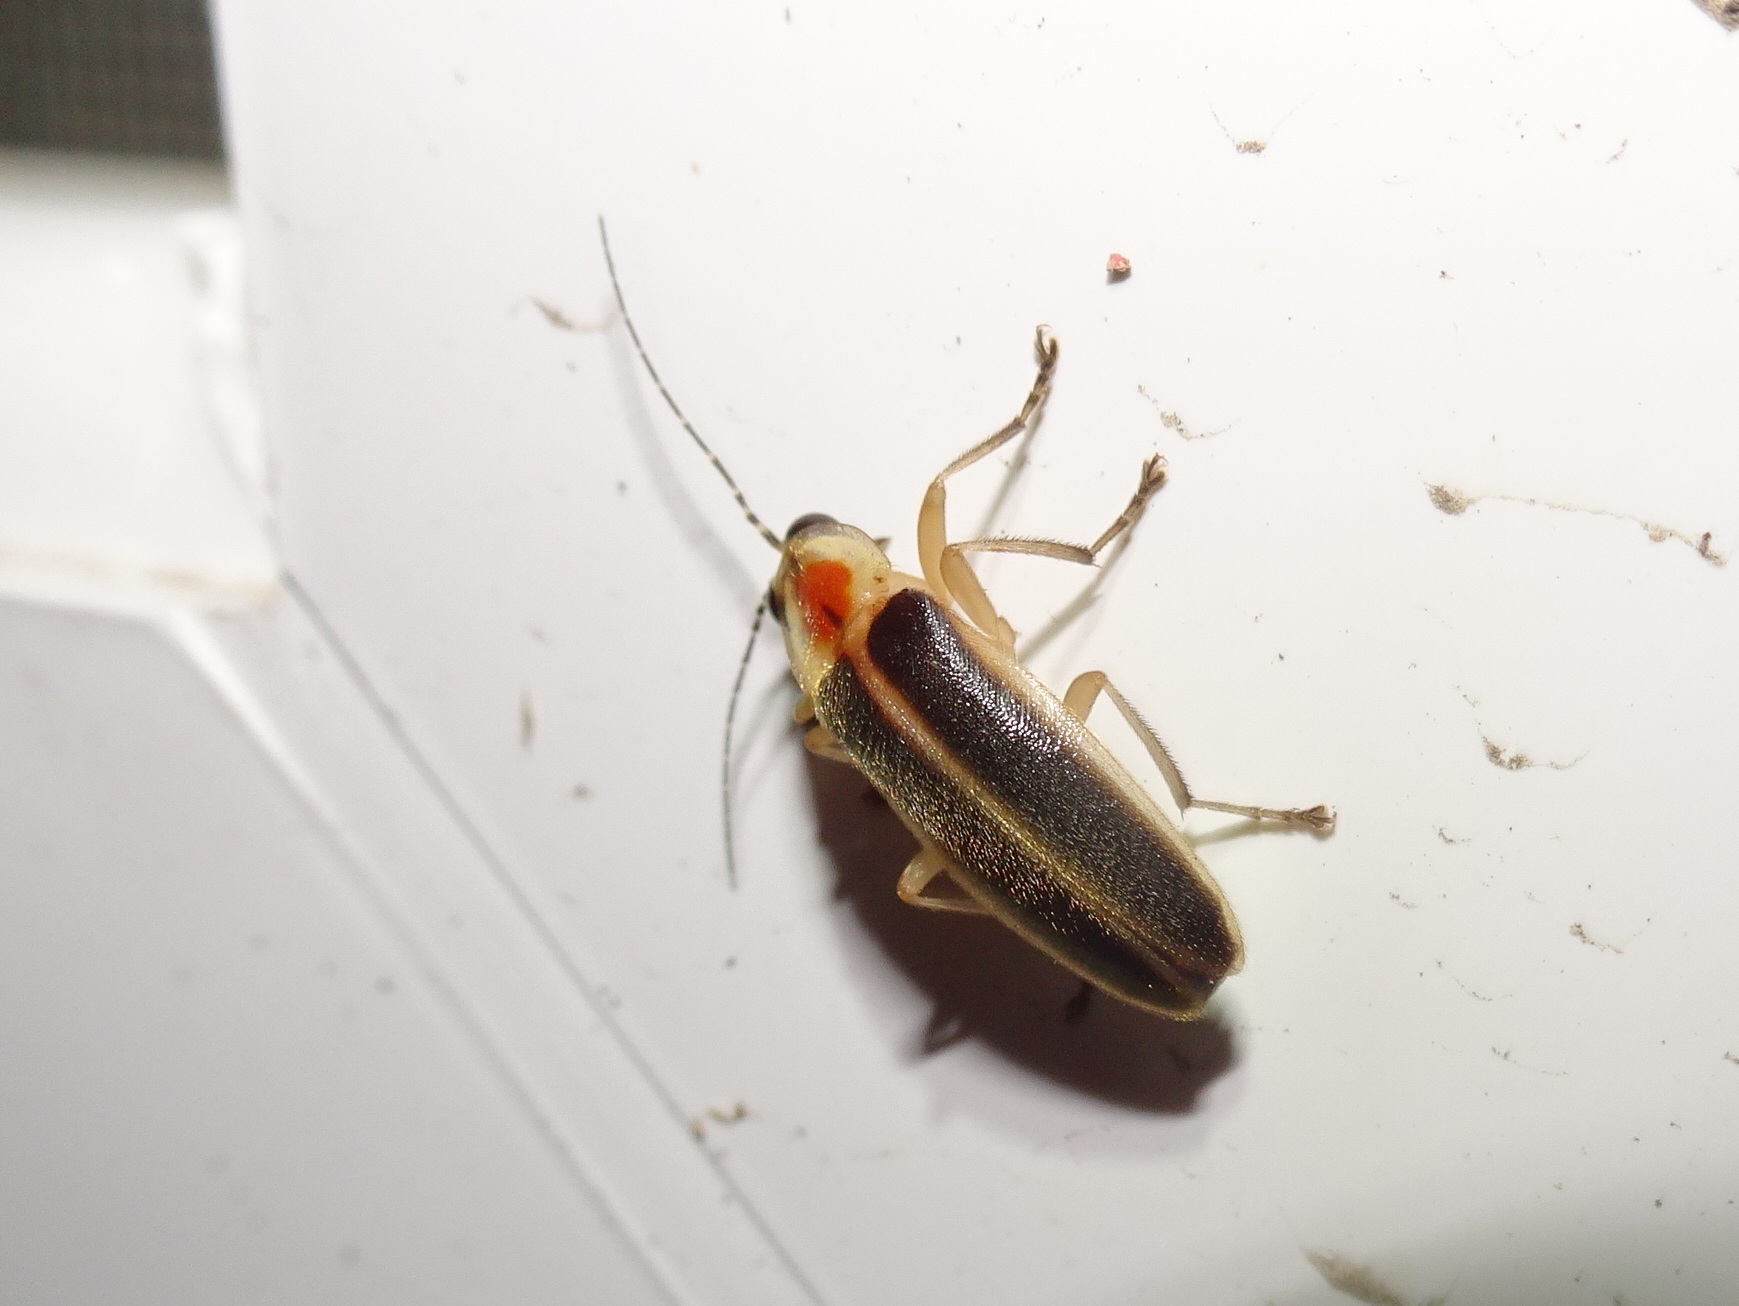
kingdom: Animalia
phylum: Arthropoda
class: Insecta
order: Coleoptera
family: Lampyridae
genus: Photuris
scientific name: Photuris
